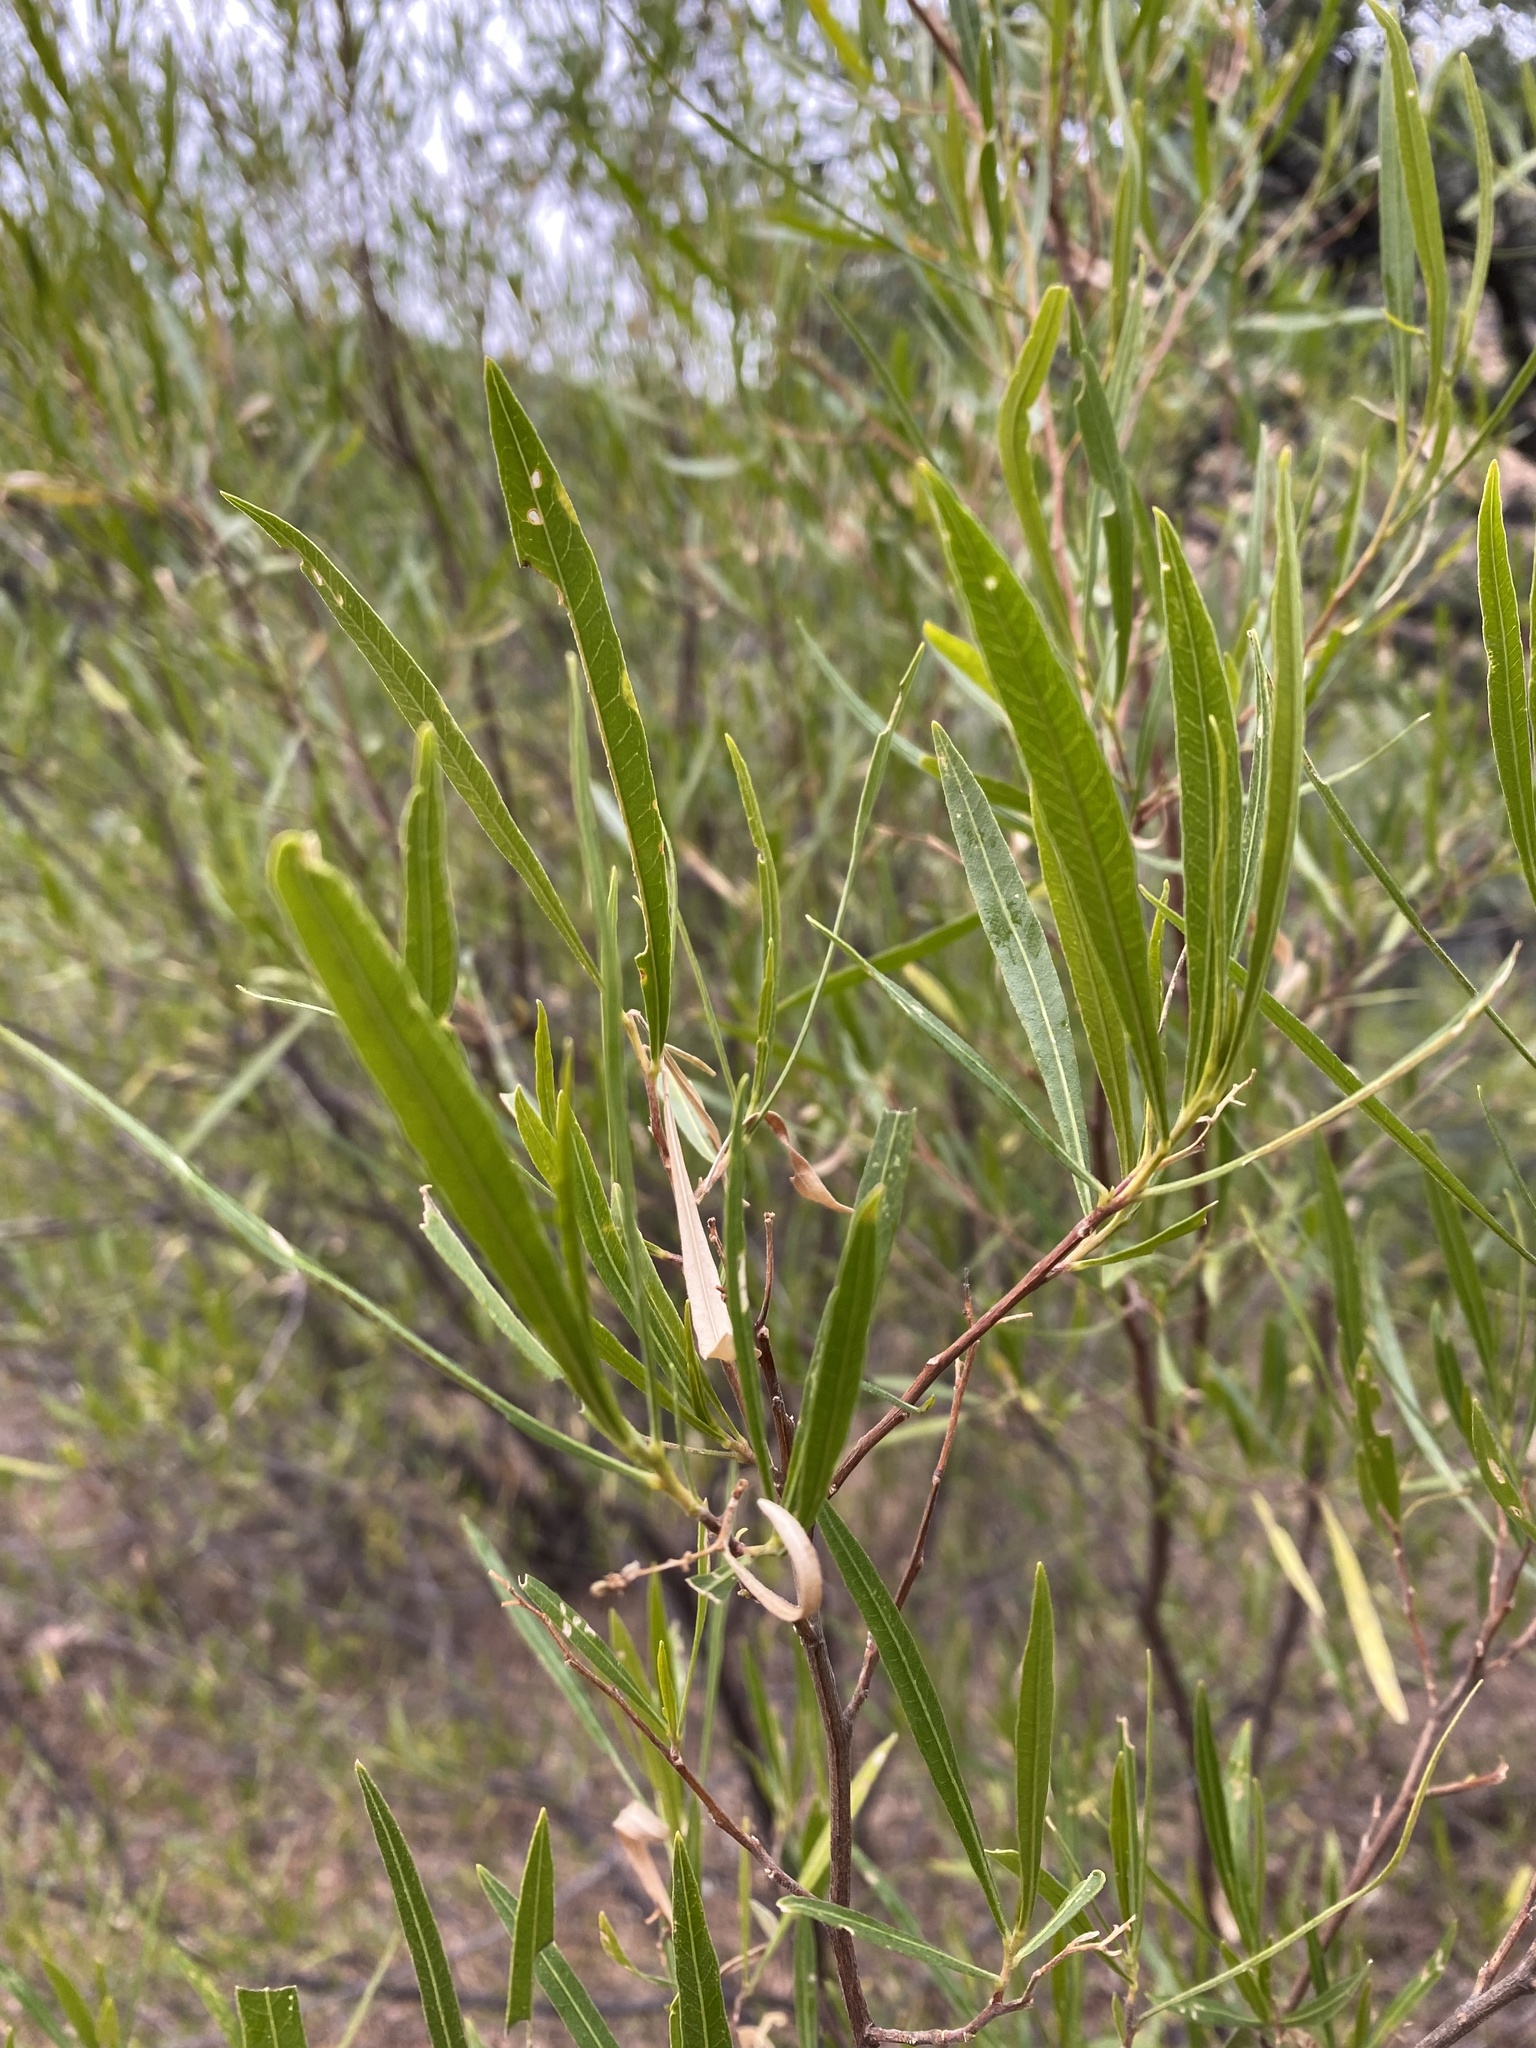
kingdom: Plantae
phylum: Tracheophyta
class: Magnoliopsida
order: Sapindales
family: Sapindaceae
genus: Dodonaea
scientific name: Dodonaea viscosa
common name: Hopbush
